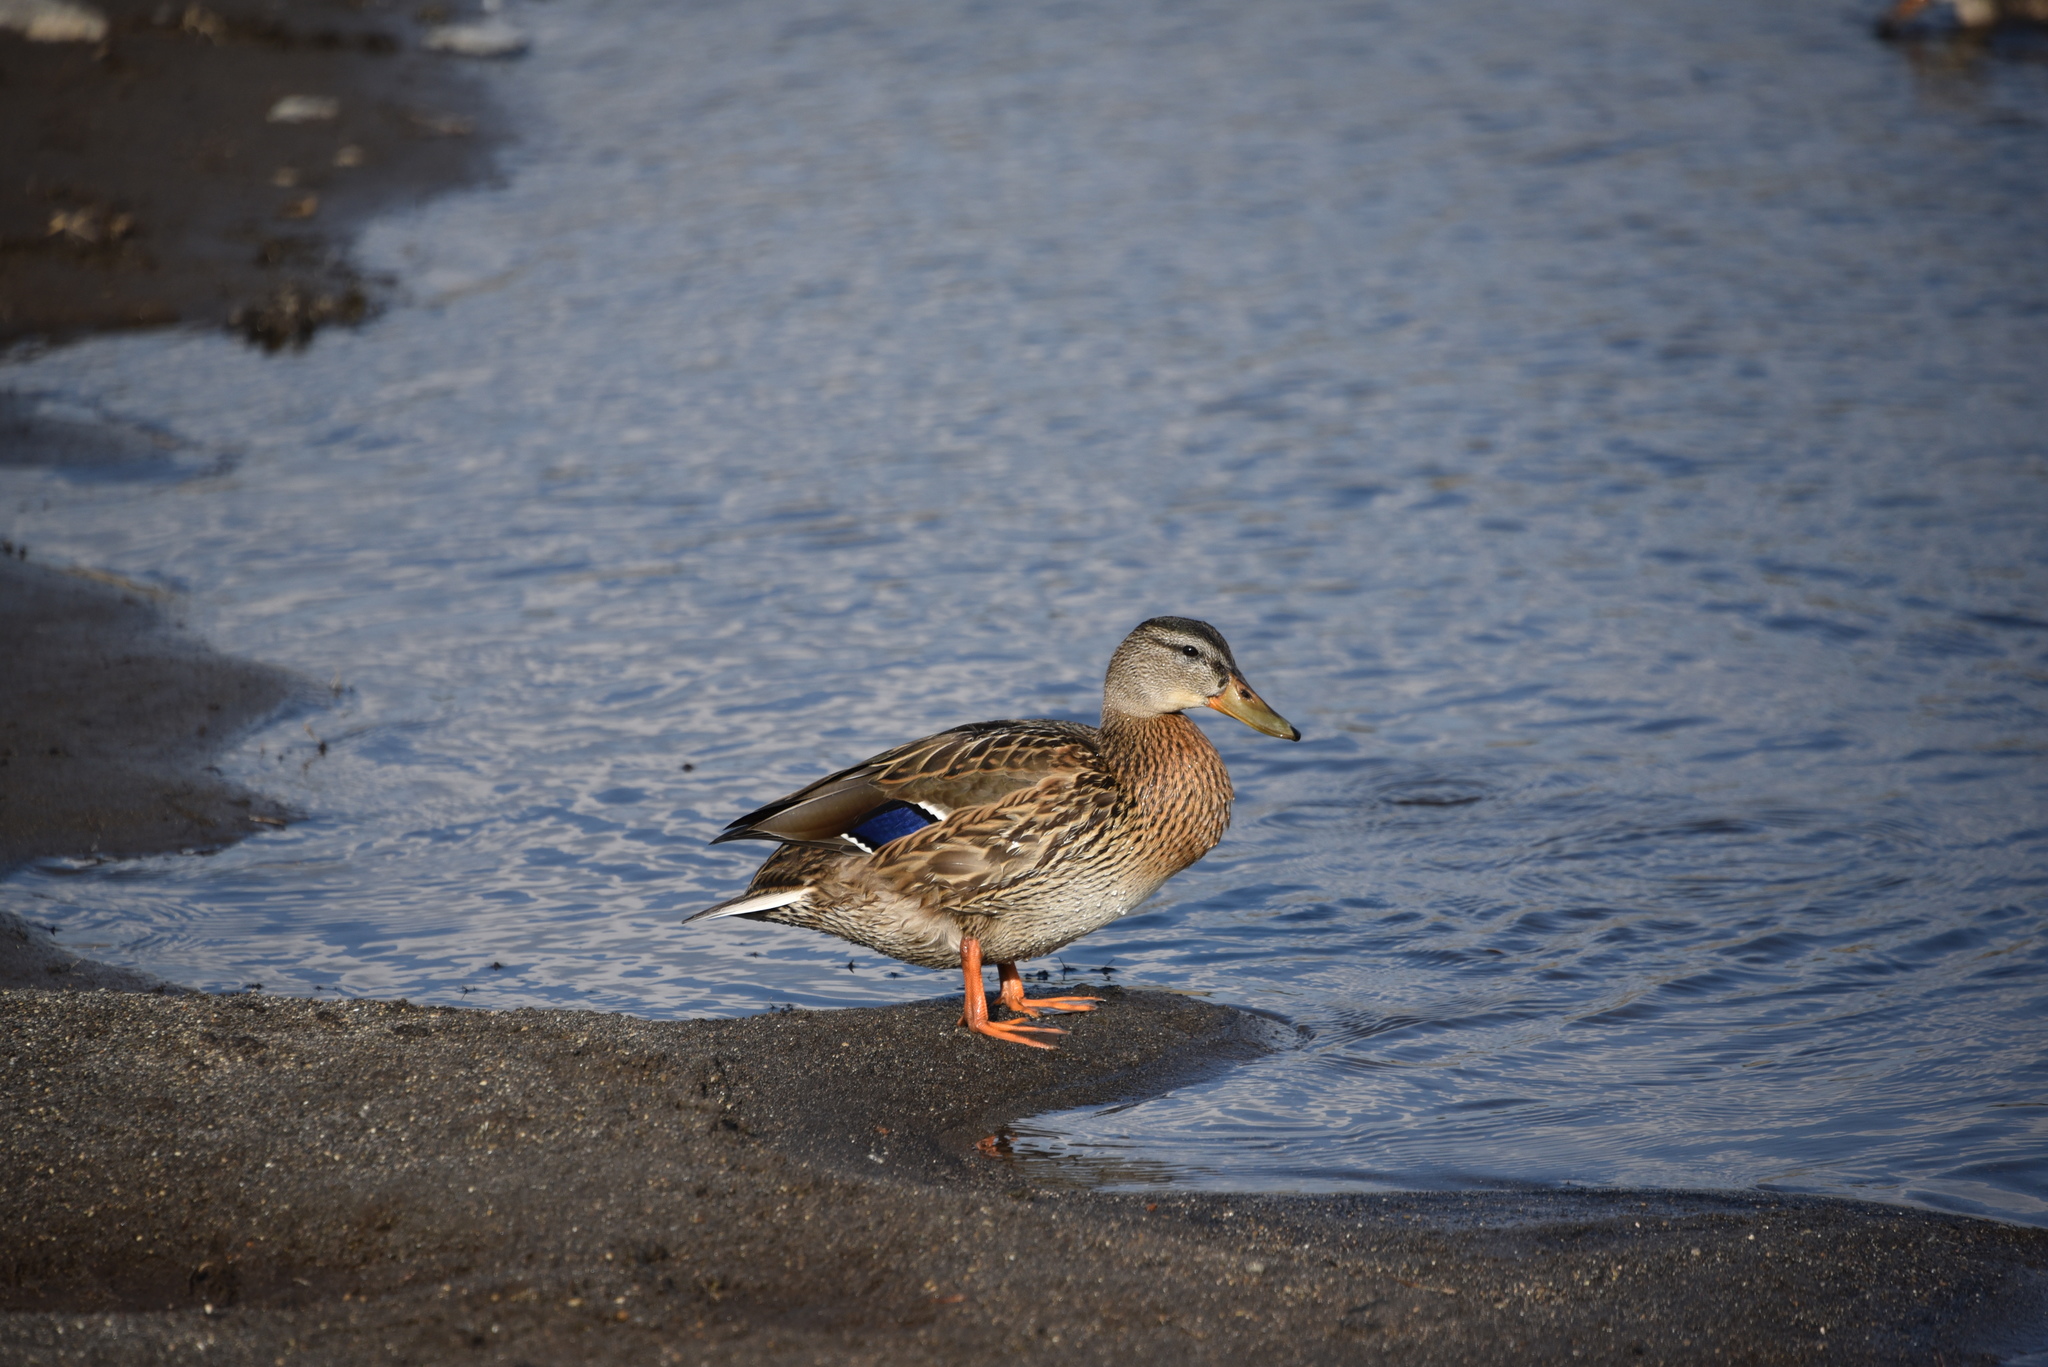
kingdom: Animalia
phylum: Chordata
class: Aves
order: Anseriformes
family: Anatidae
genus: Anas
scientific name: Anas platyrhynchos
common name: Mallard
